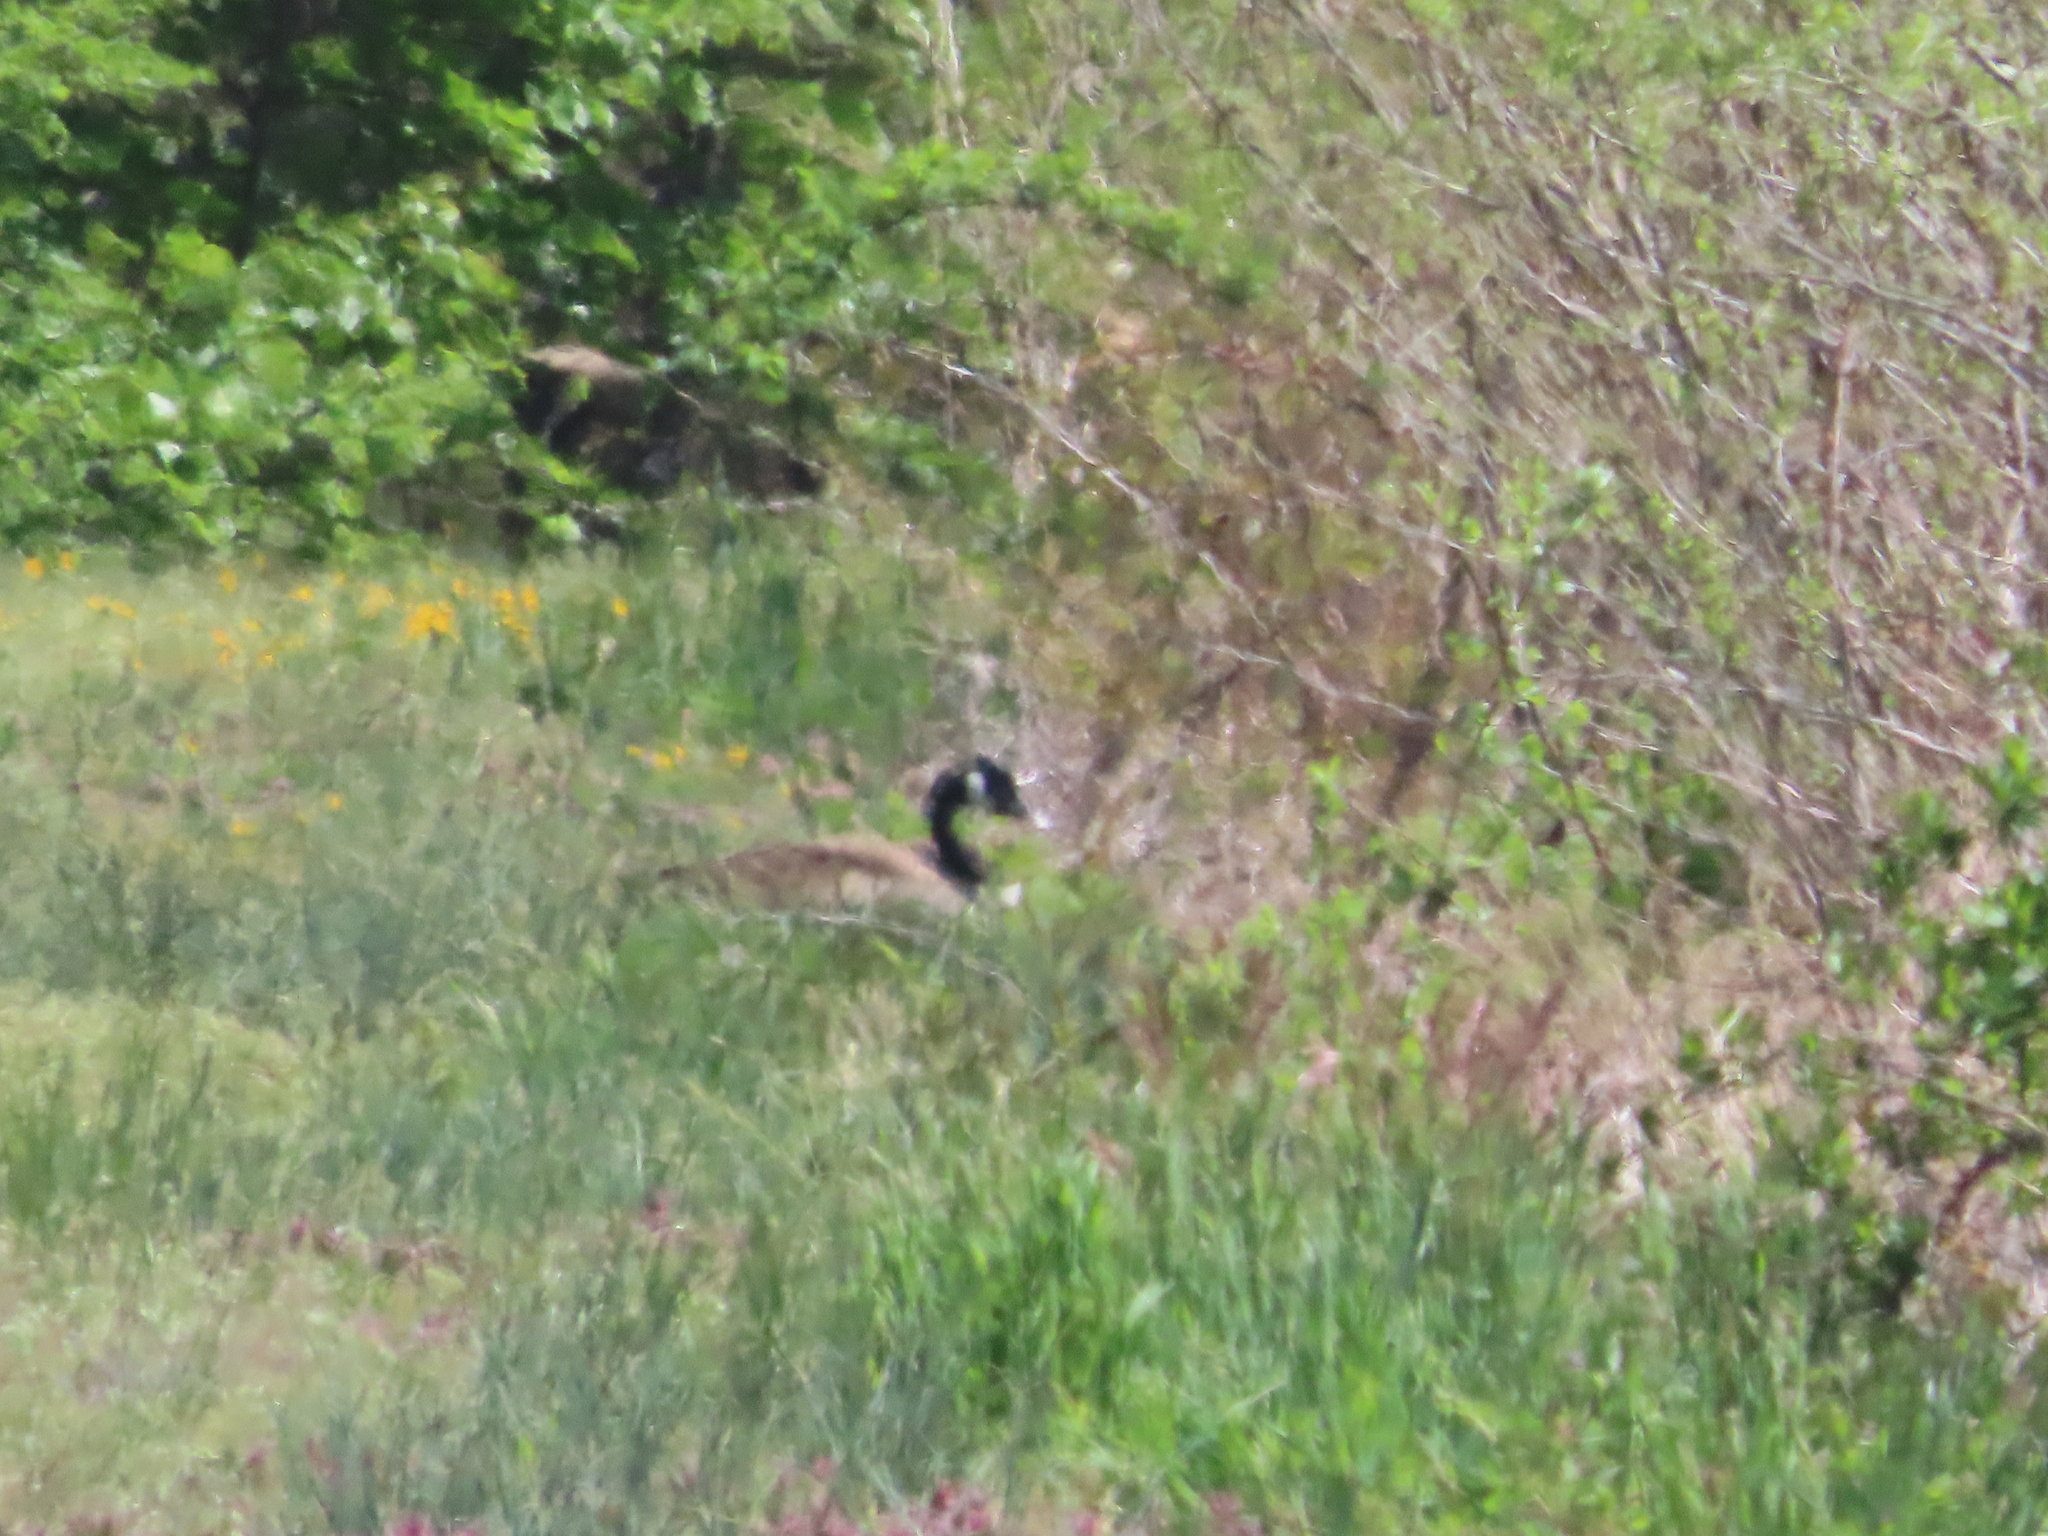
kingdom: Animalia
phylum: Chordata
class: Aves
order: Anseriformes
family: Anatidae
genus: Branta
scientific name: Branta canadensis
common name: Canada goose
